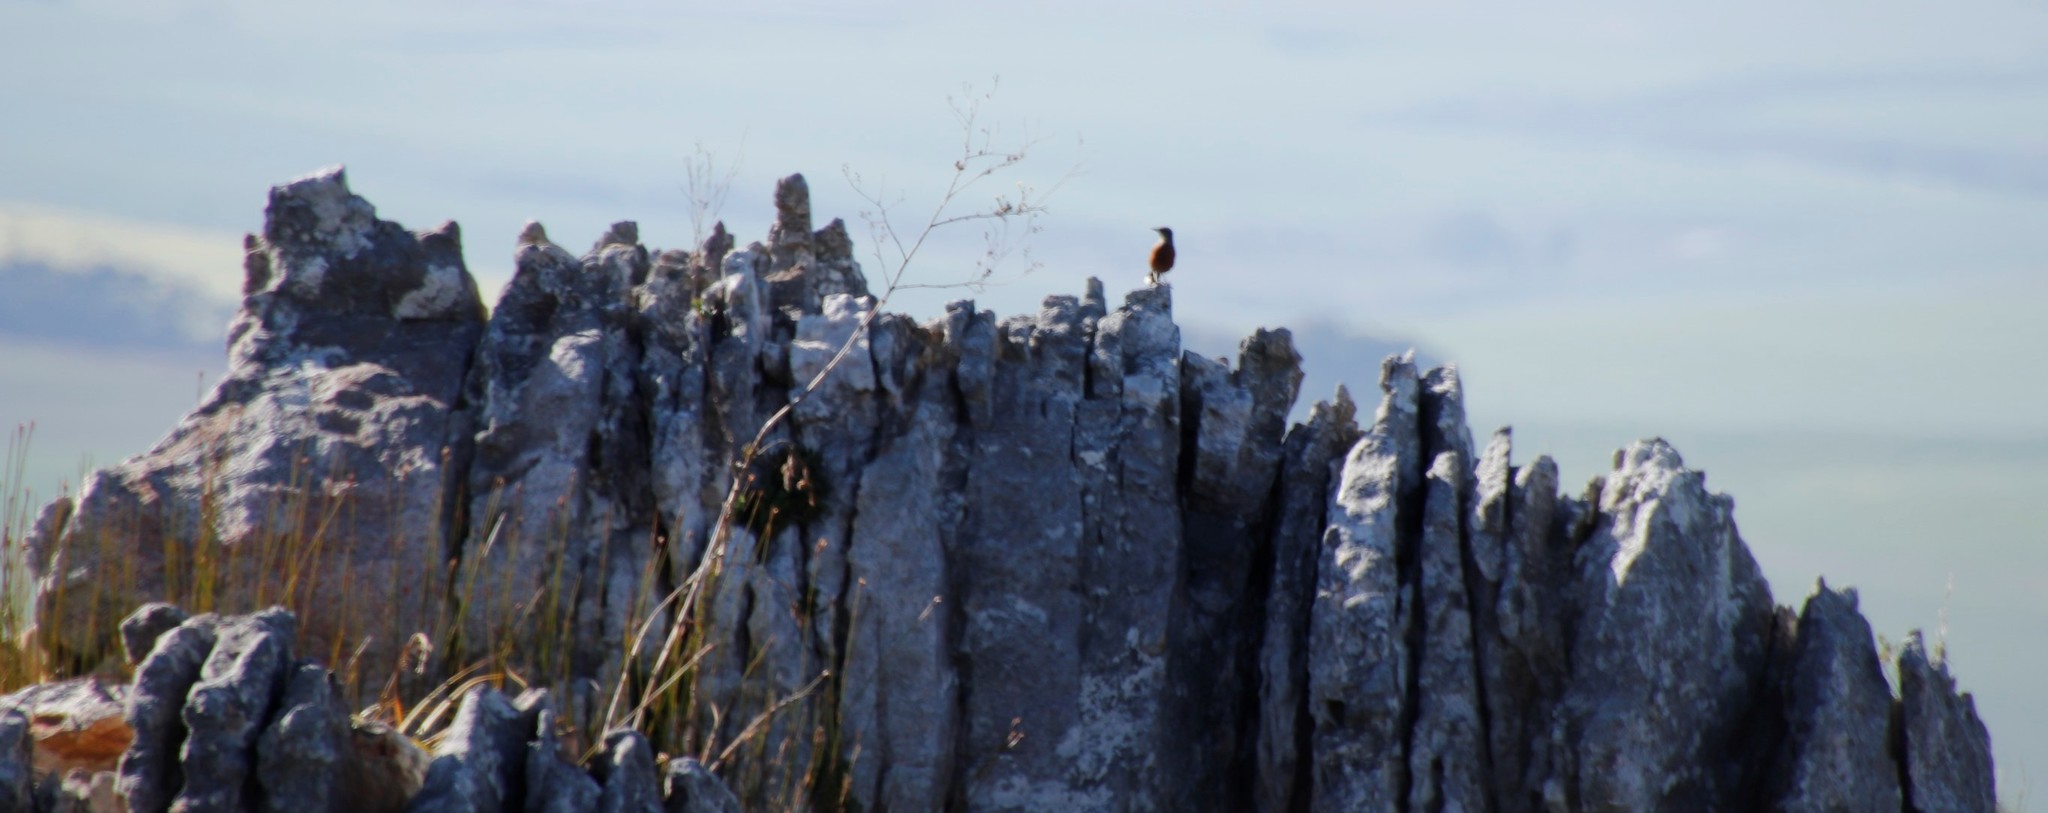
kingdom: Animalia
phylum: Chordata
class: Aves
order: Passeriformes
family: Chaetopidae
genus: Chaetops
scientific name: Chaetops frenatus
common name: Cape rockjumper
